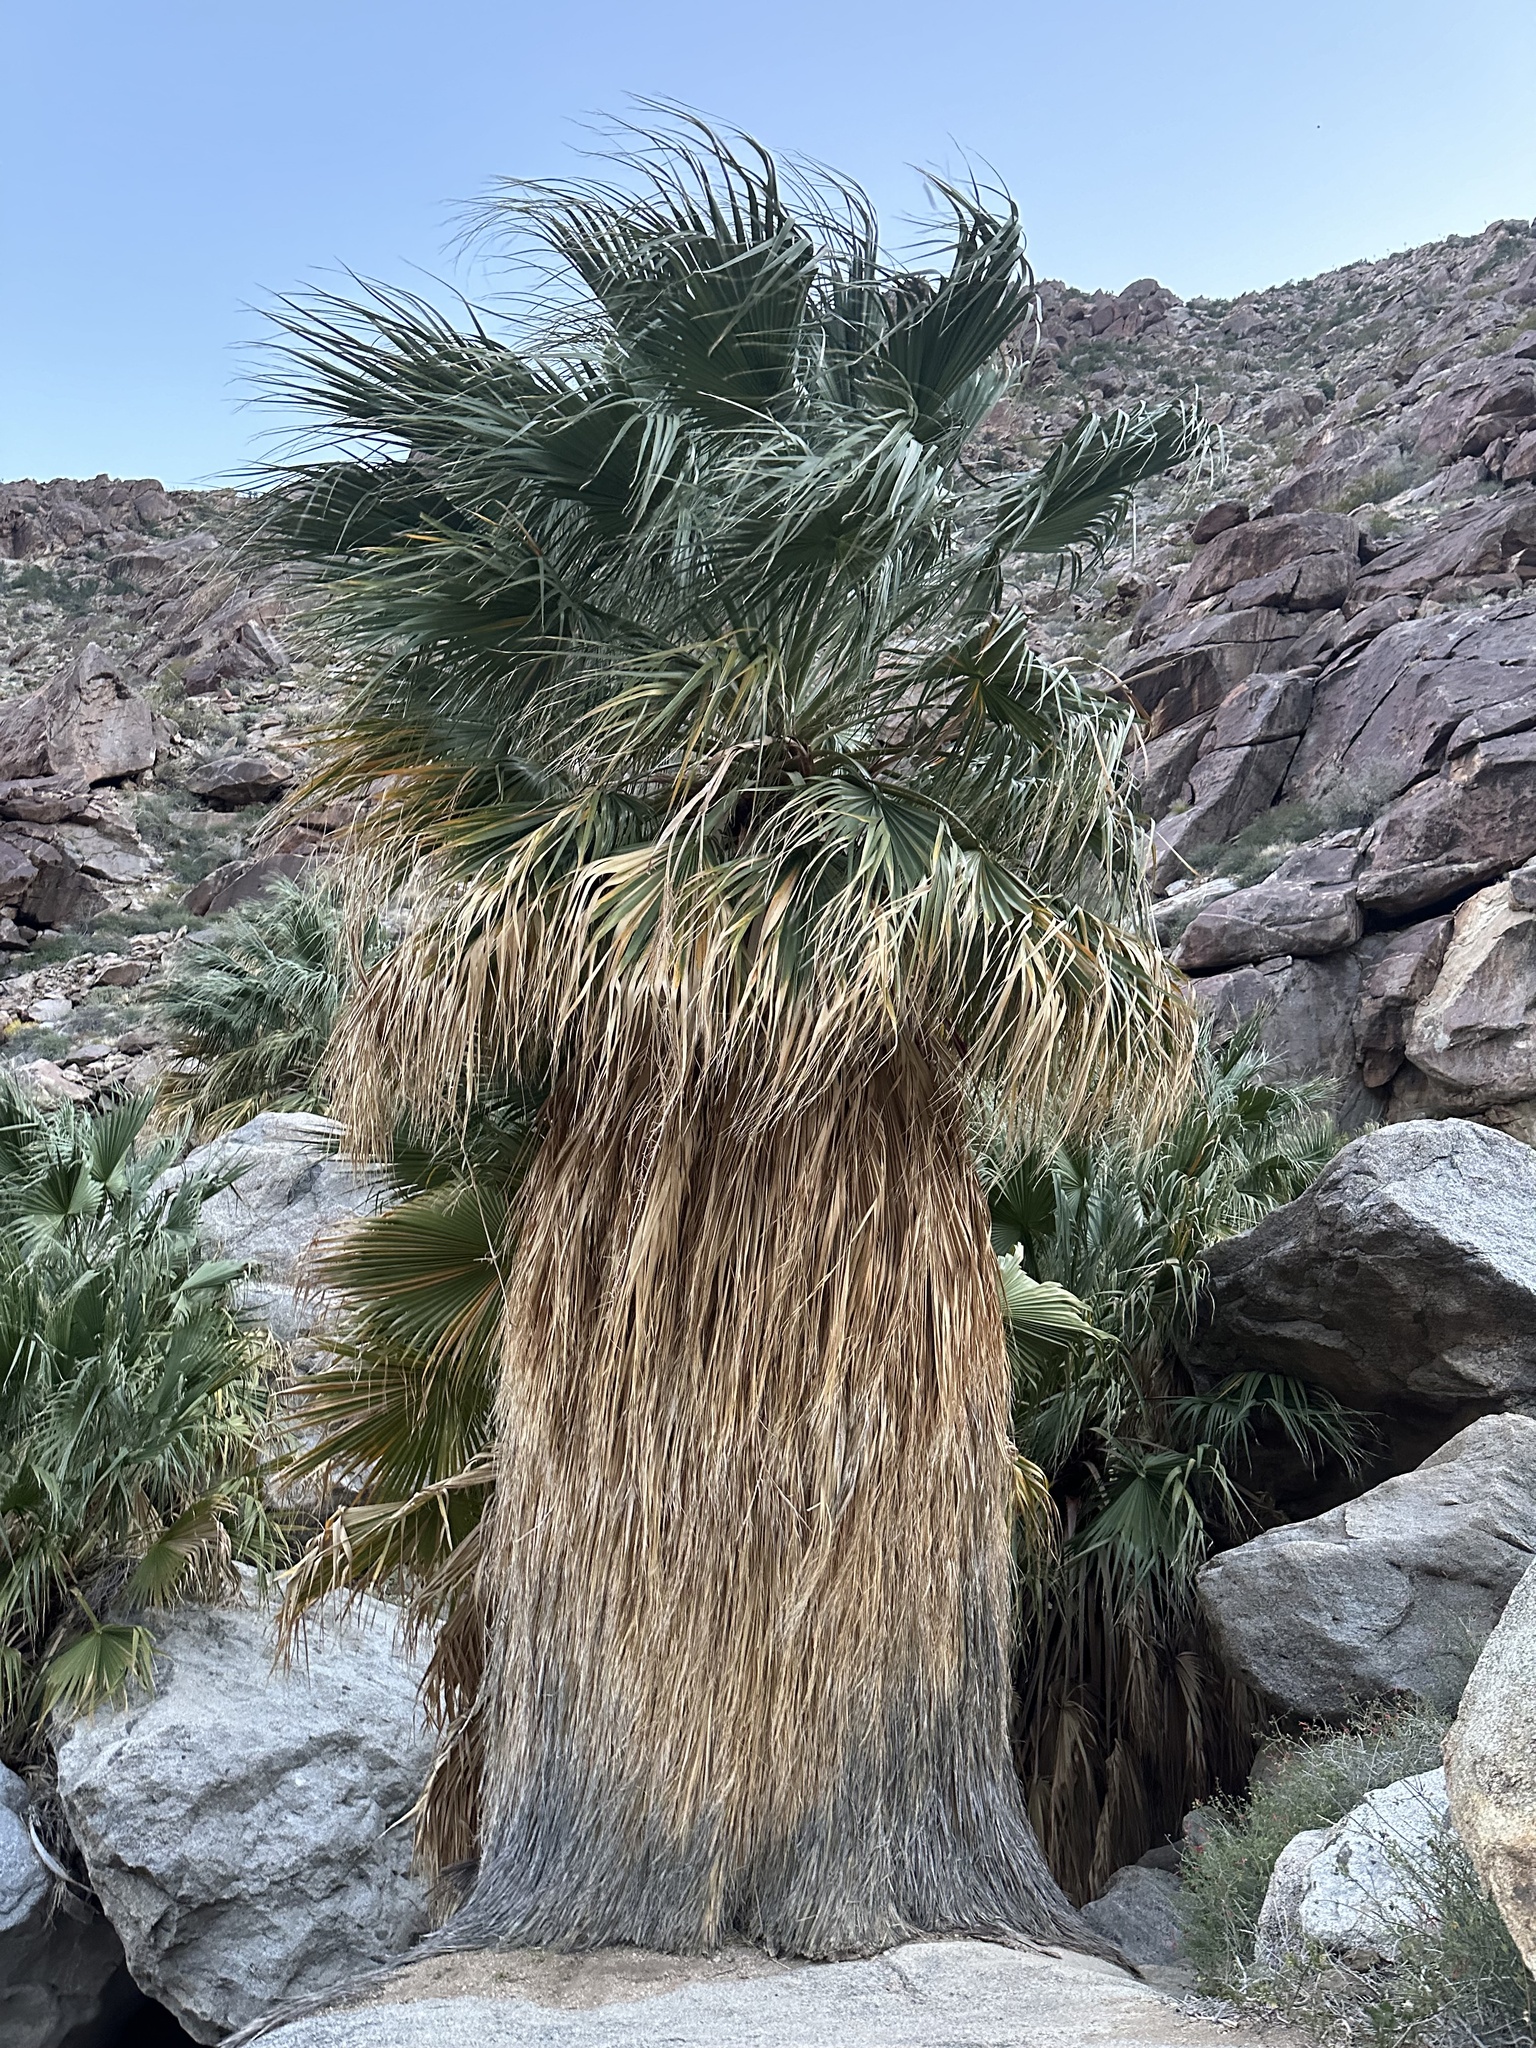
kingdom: Plantae
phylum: Tracheophyta
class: Liliopsida
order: Arecales
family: Arecaceae
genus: Washingtonia
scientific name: Washingtonia filifera
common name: California fan palm
